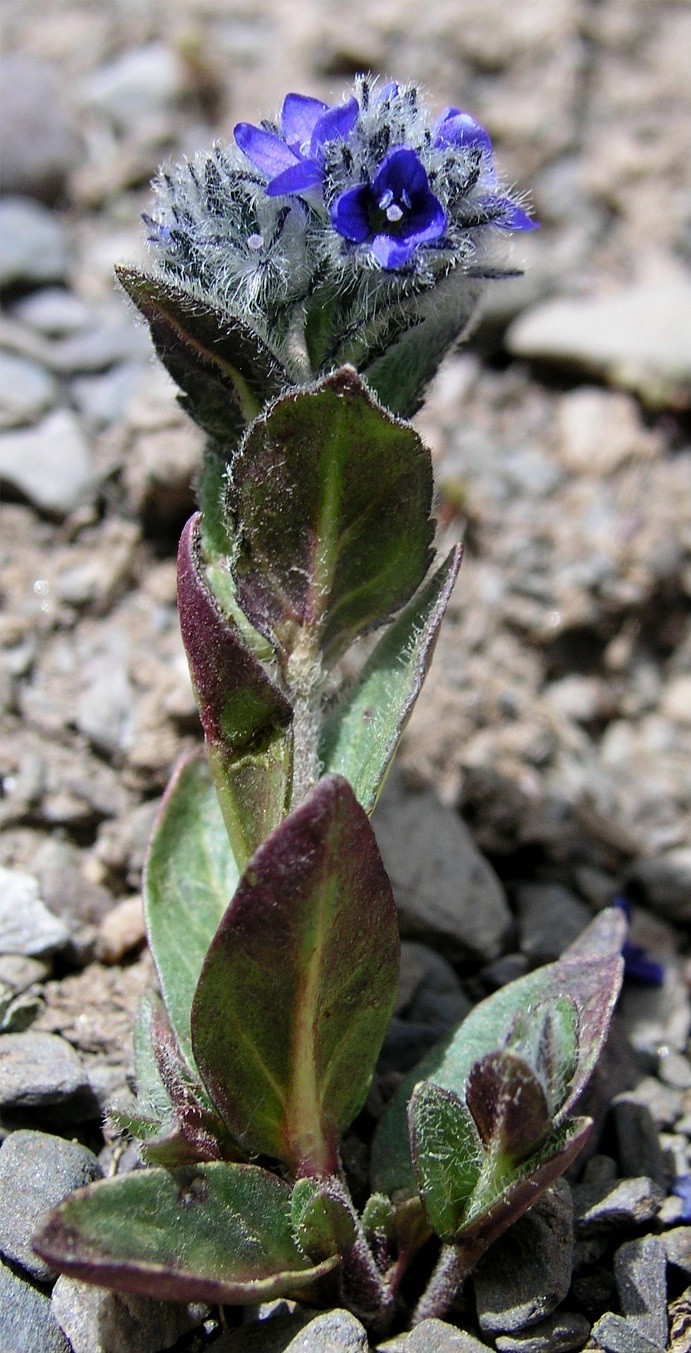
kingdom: Plantae
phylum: Tracheophyta
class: Magnoliopsida
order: Lamiales
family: Plantaginaceae
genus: Veronica
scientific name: Veronica ciliata
